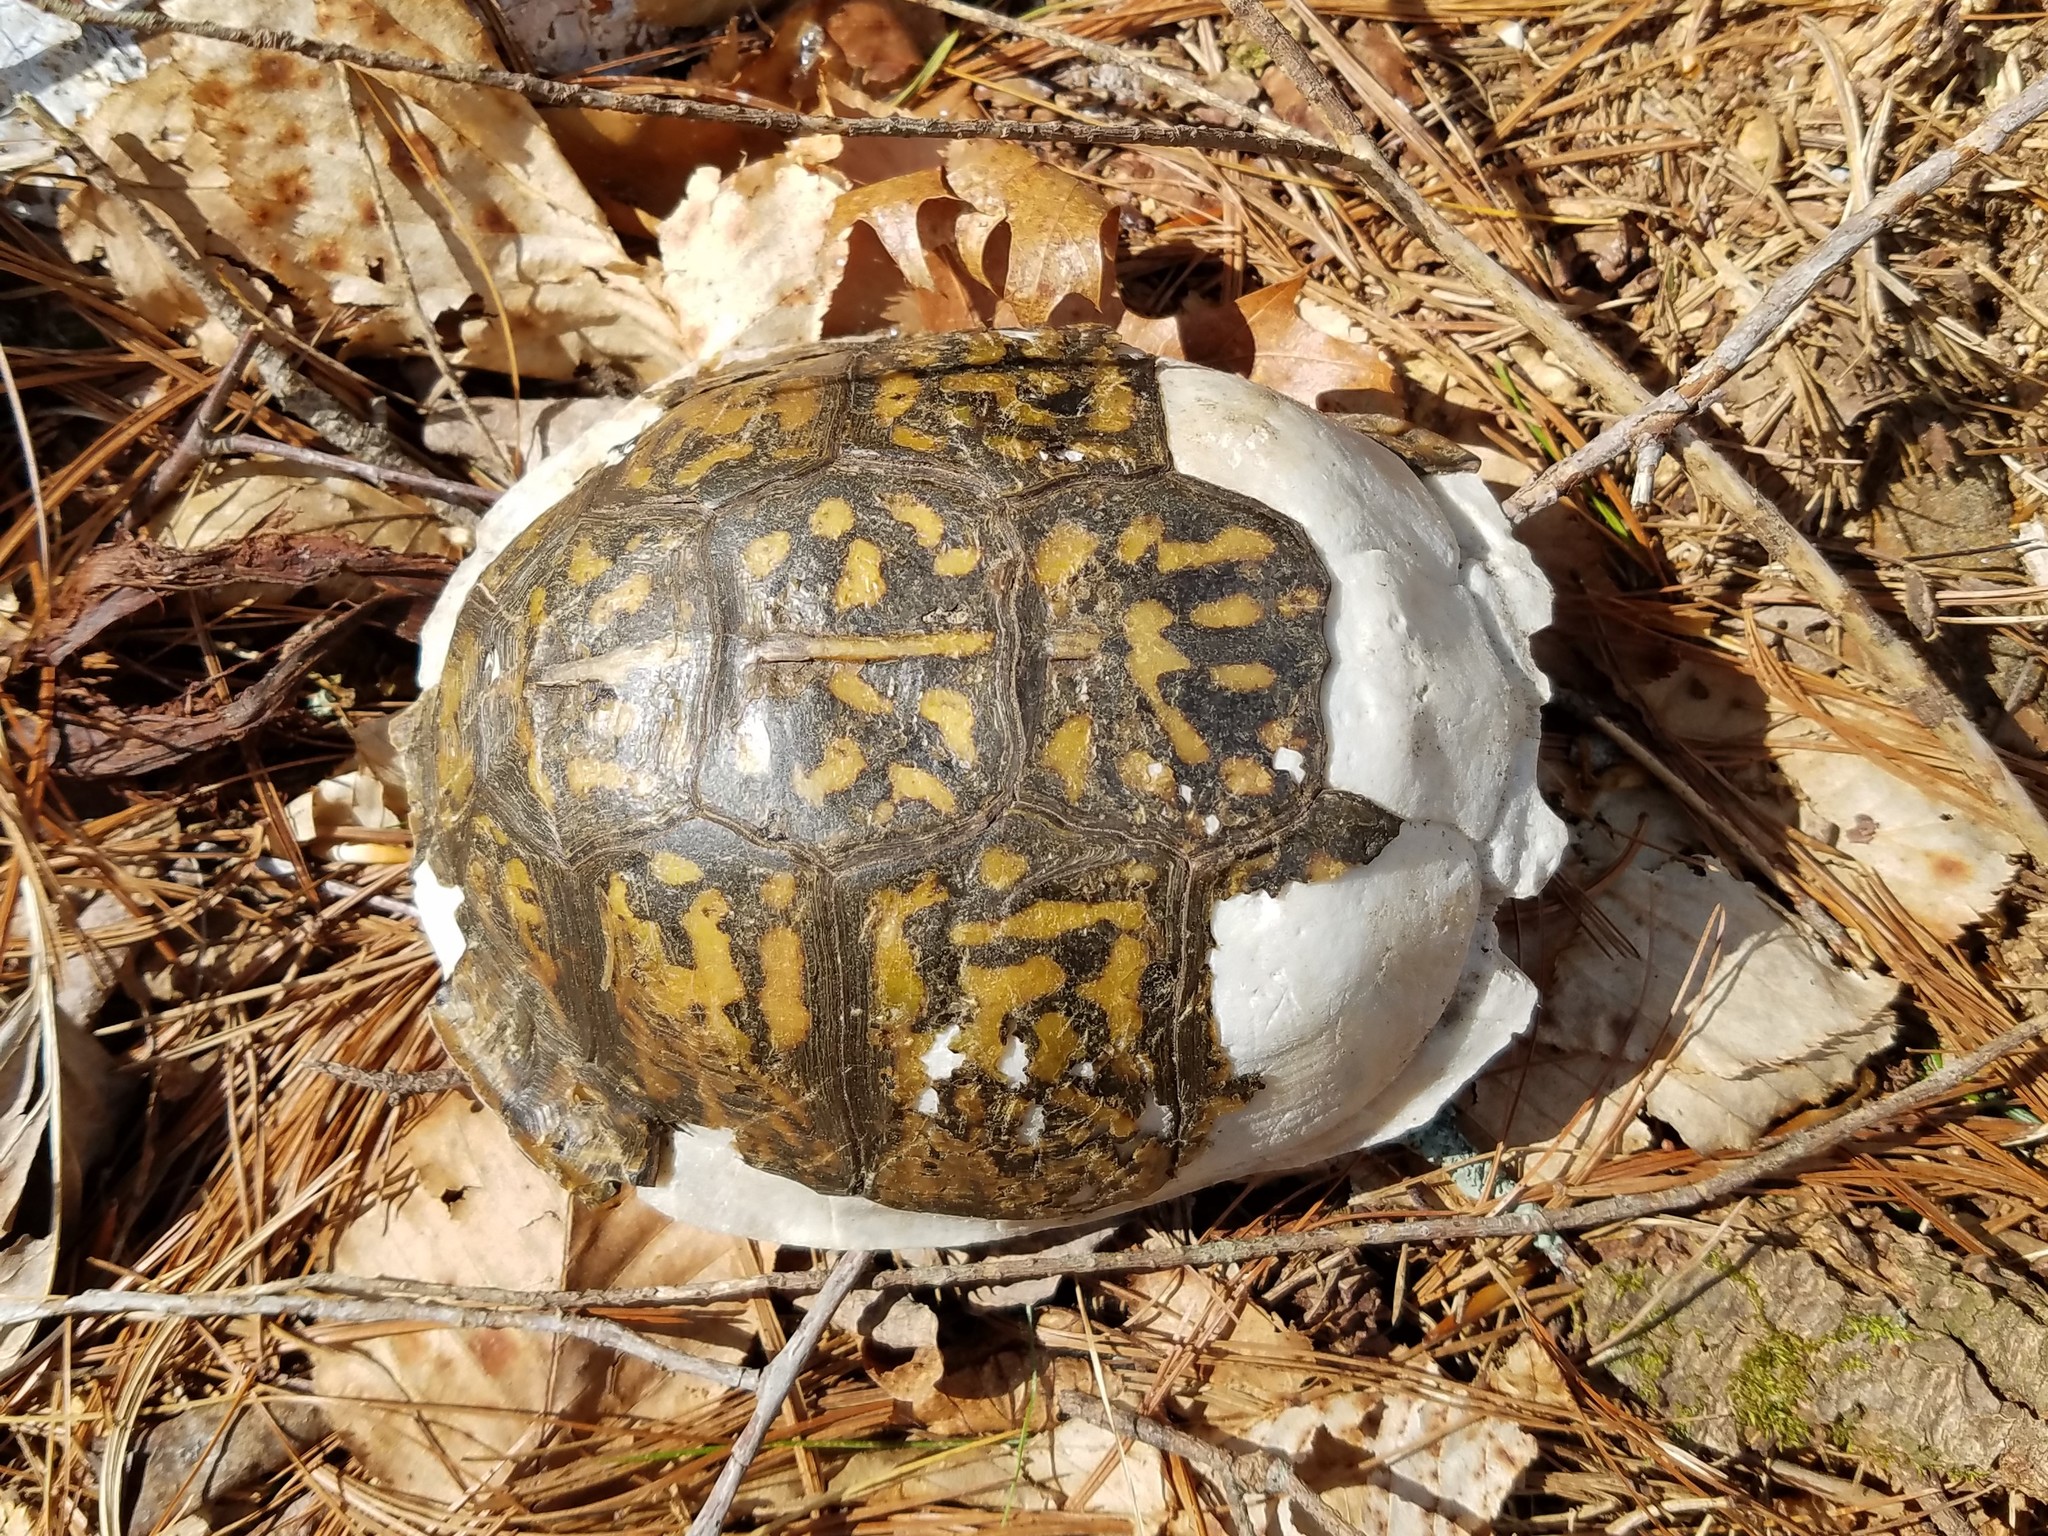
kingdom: Animalia
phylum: Chordata
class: Testudines
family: Emydidae
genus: Terrapene
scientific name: Terrapene carolina
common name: Common box turtle
